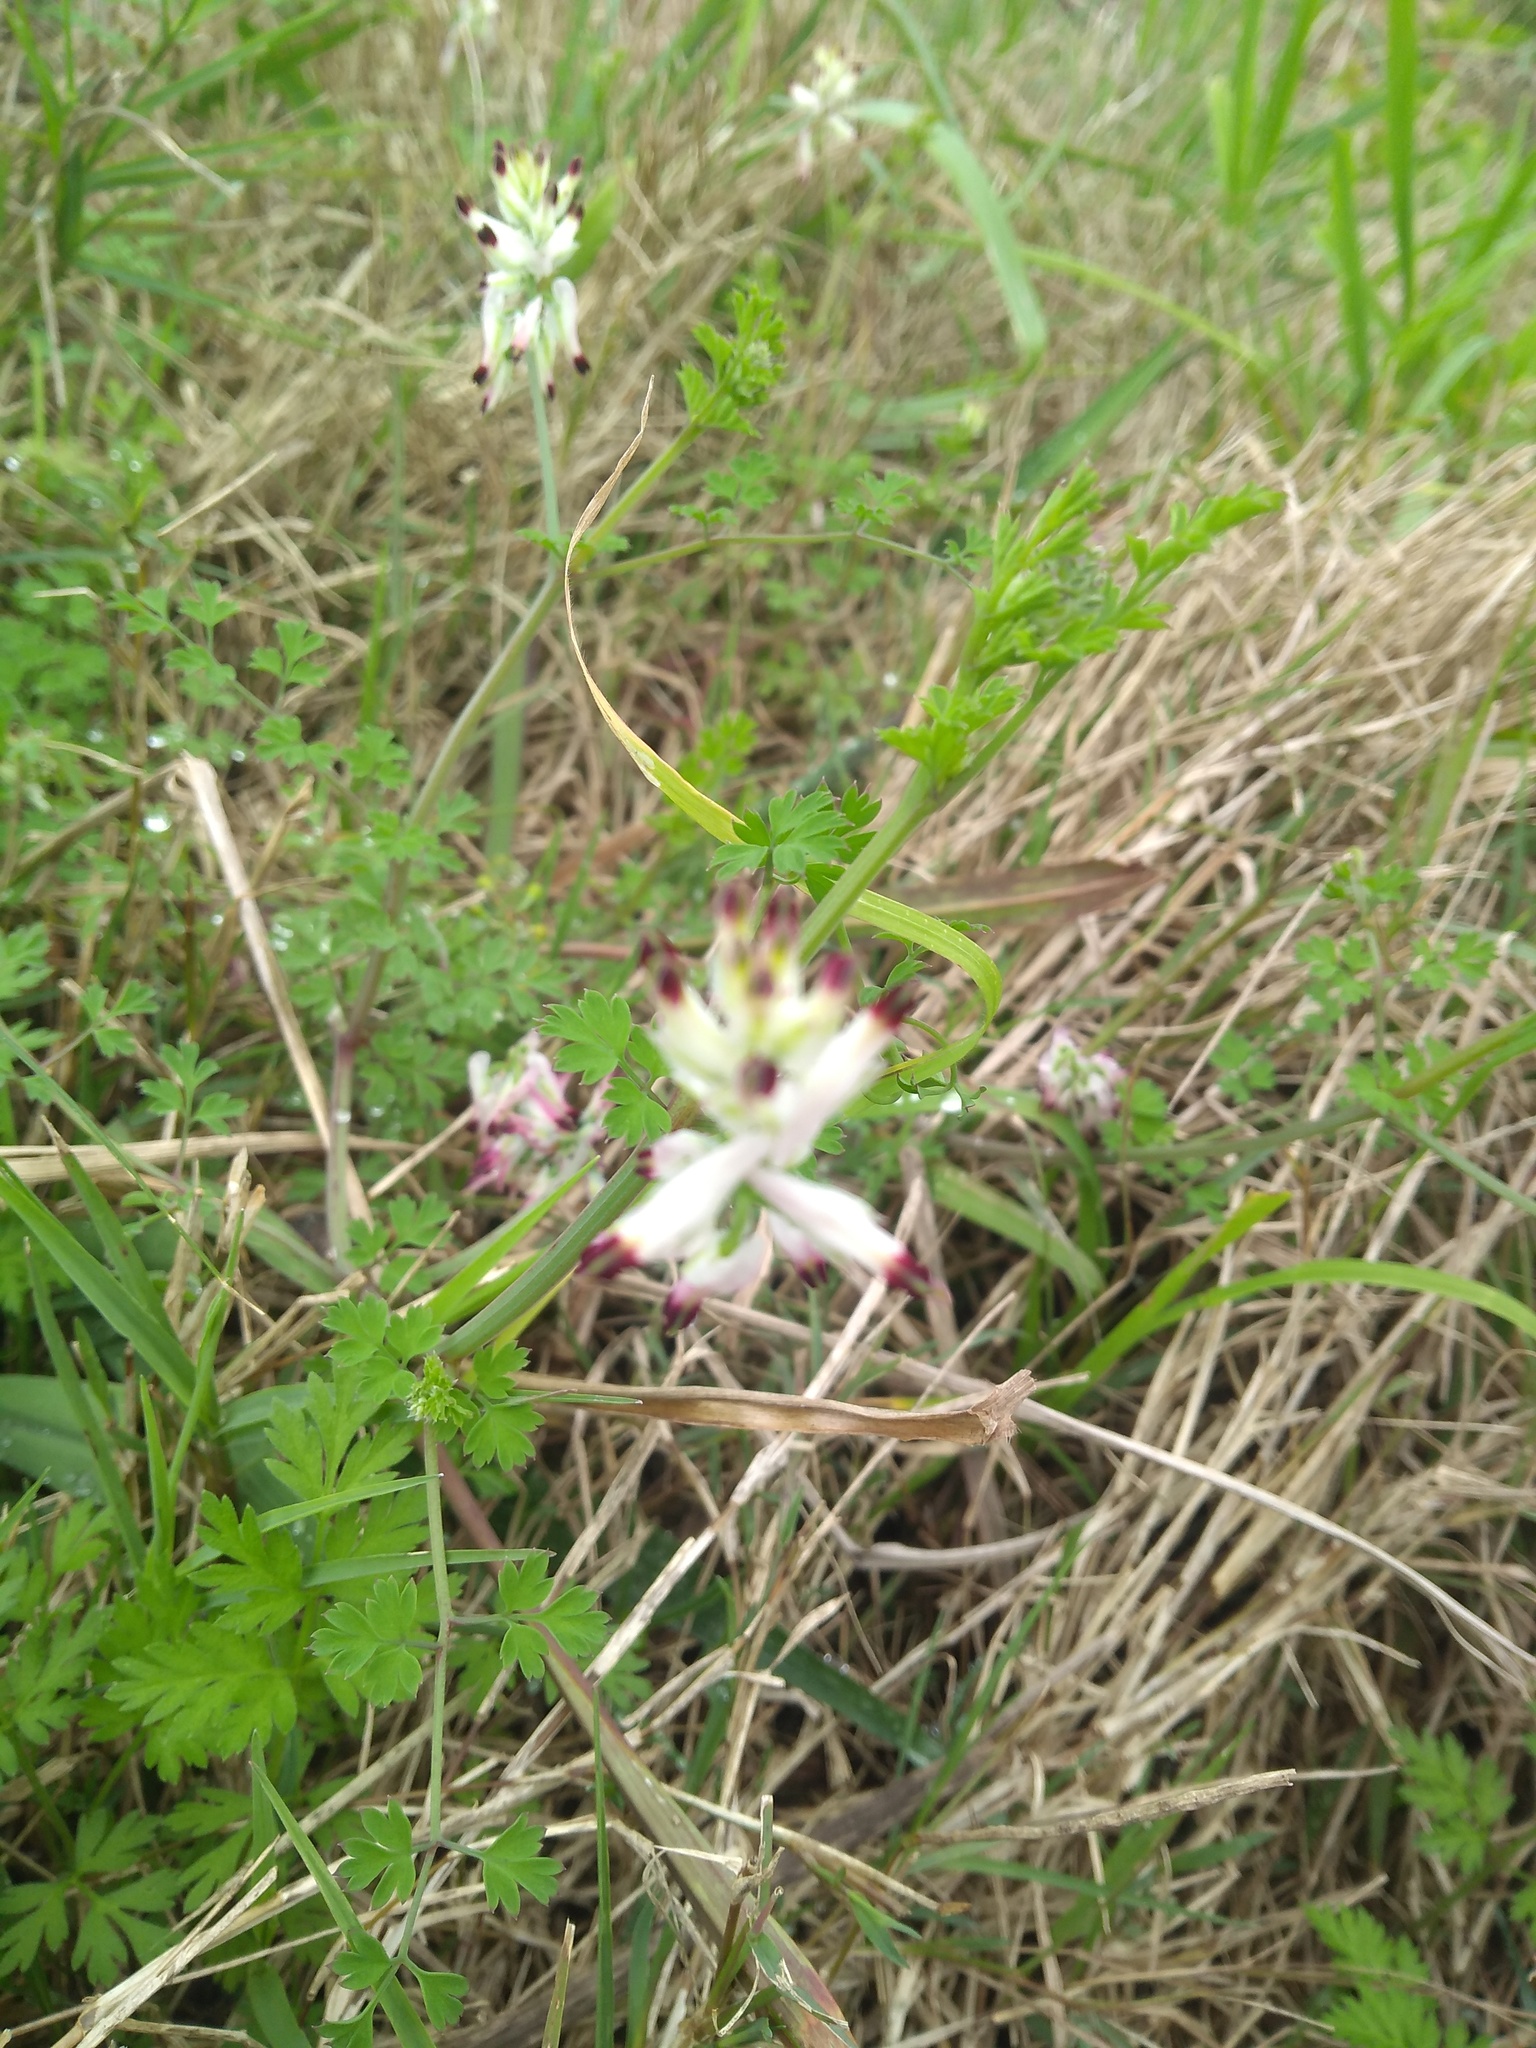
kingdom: Plantae
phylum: Tracheophyta
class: Magnoliopsida
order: Ranunculales
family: Papaveraceae
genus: Fumaria
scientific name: Fumaria capreolata
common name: White ramping-fumitory
